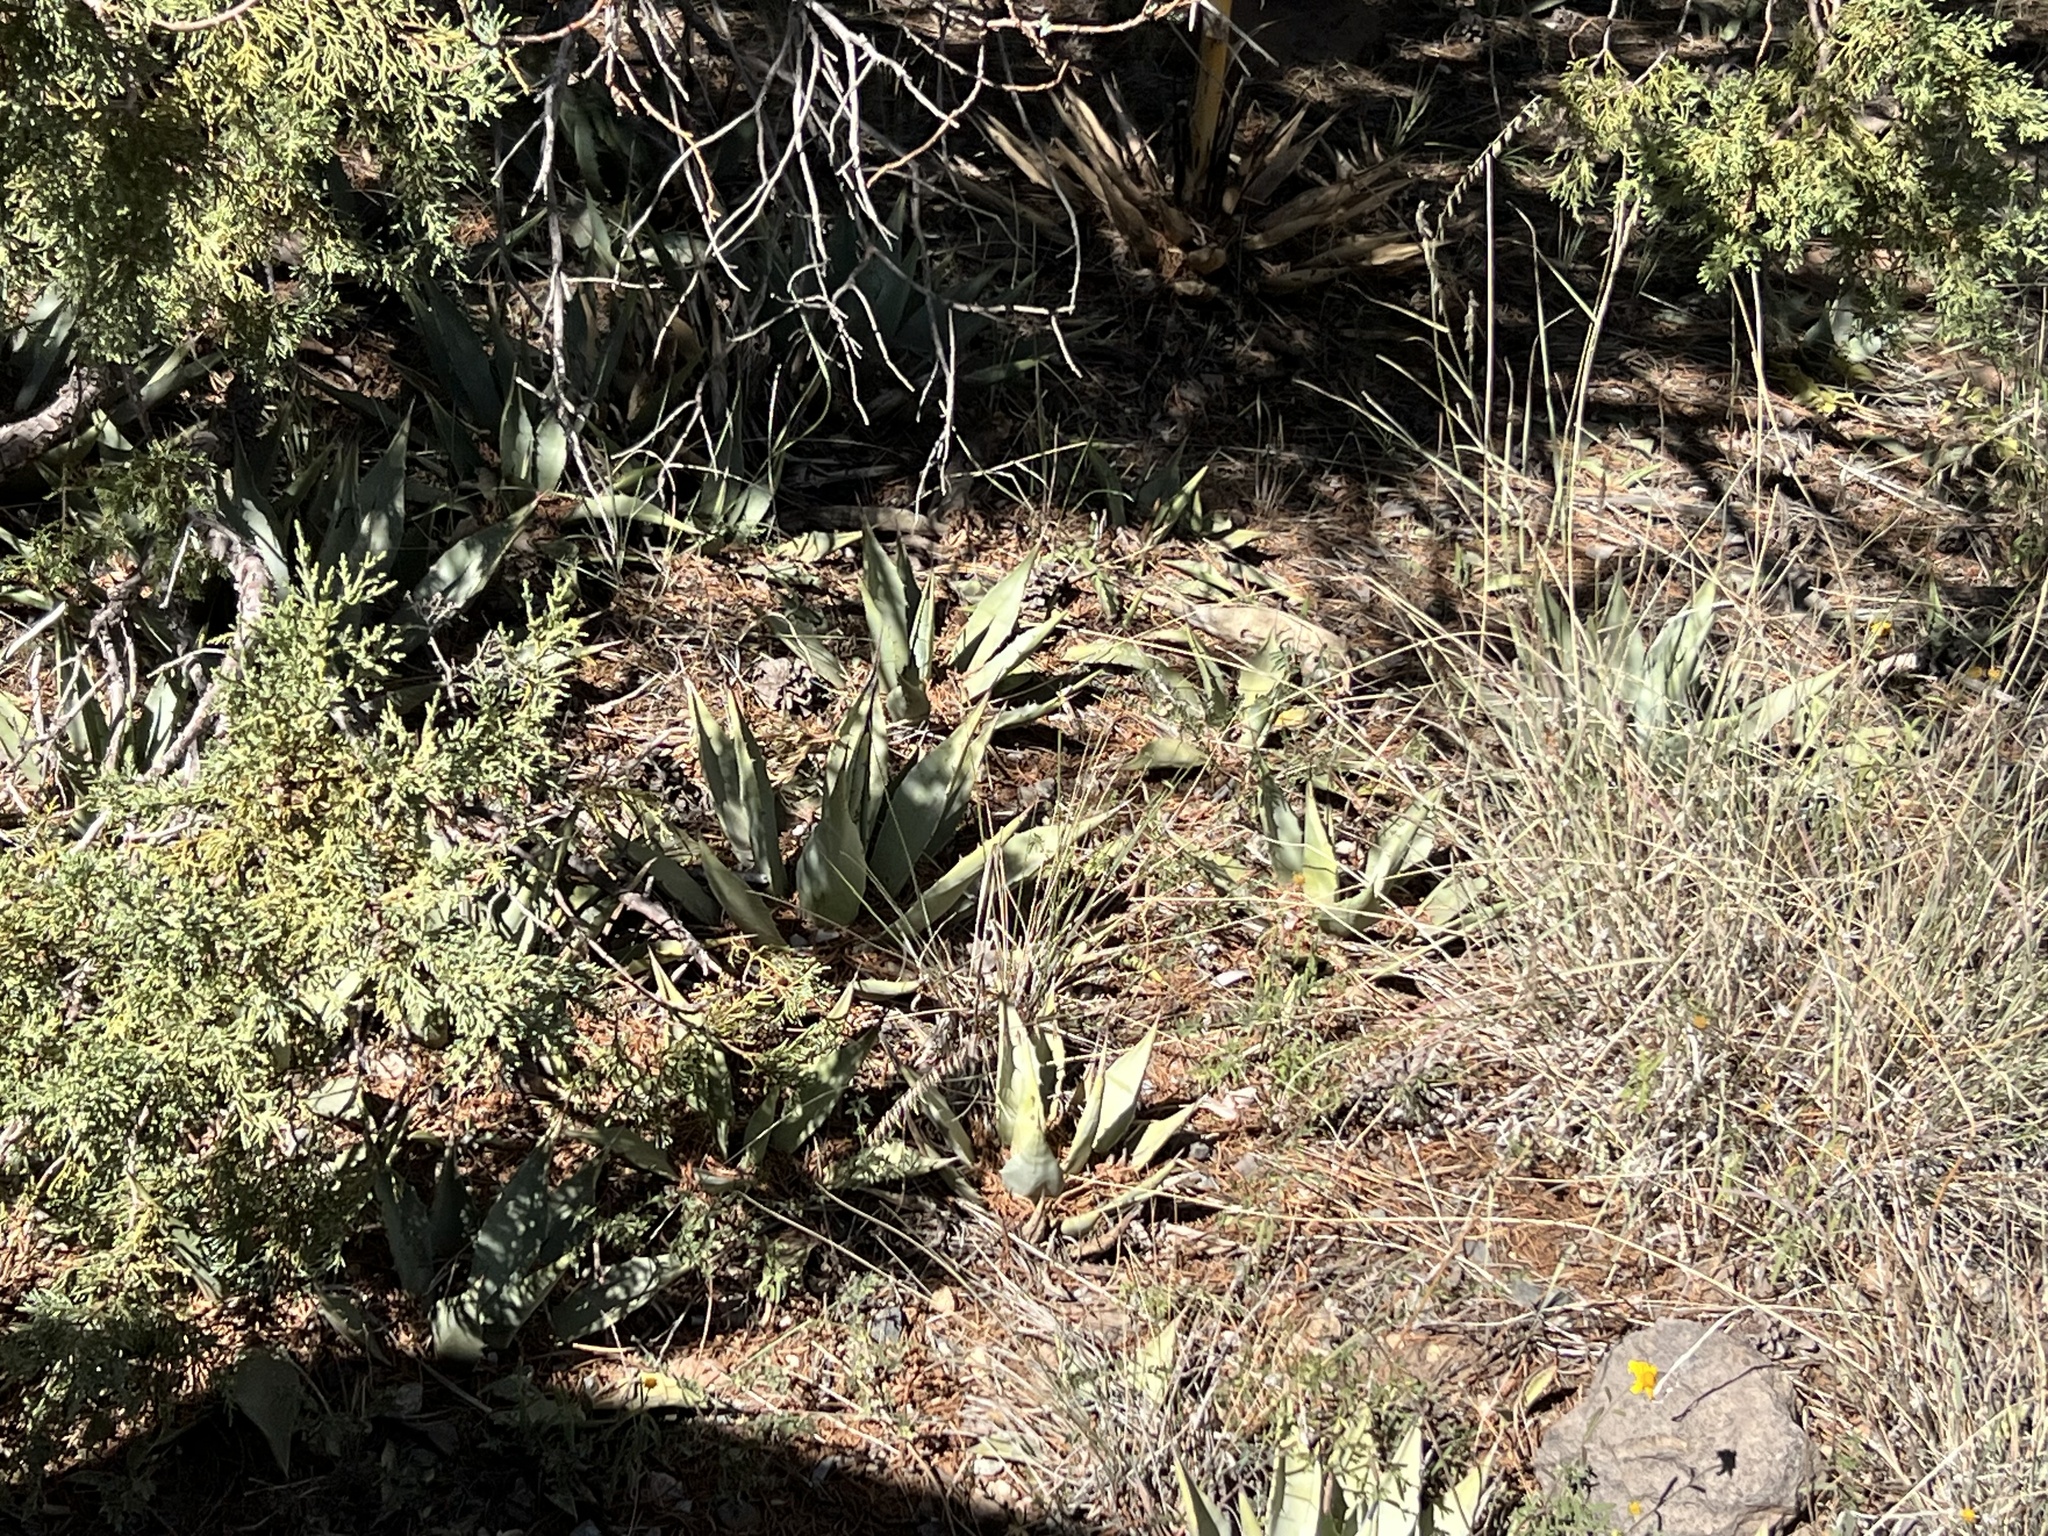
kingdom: Plantae
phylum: Tracheophyta
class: Liliopsida
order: Asparagales
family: Asparagaceae
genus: Agave
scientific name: Agave parryi
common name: Parry's agave
